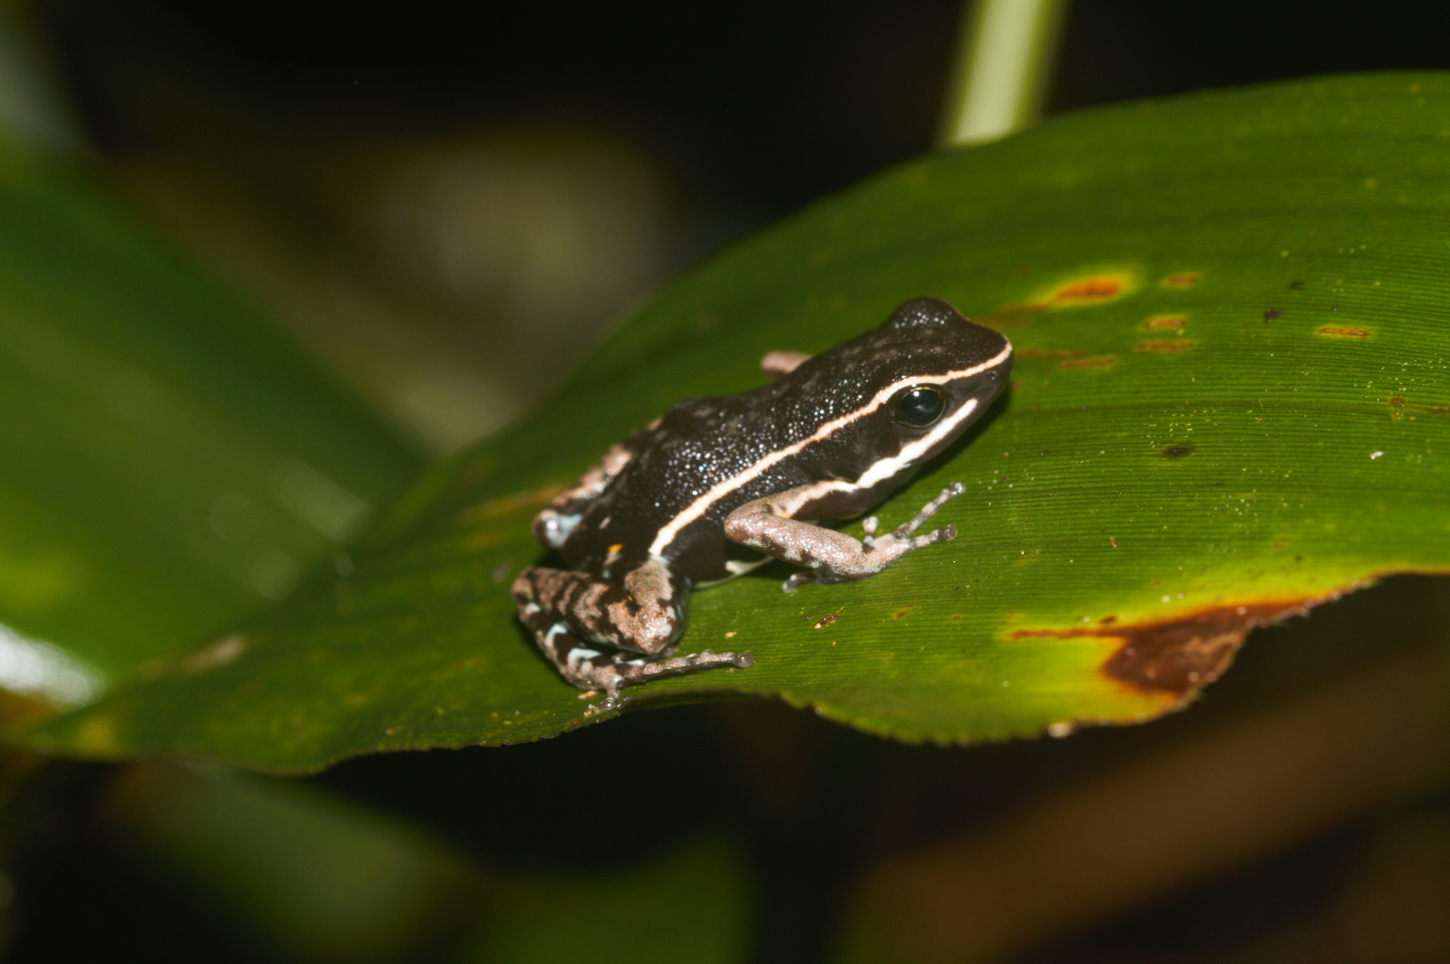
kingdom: Animalia
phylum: Chordata
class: Amphibia
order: Anura
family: Dendrobatidae
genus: Ameerega
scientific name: Ameerega hahneli
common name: Yurimaguas pioson frog
